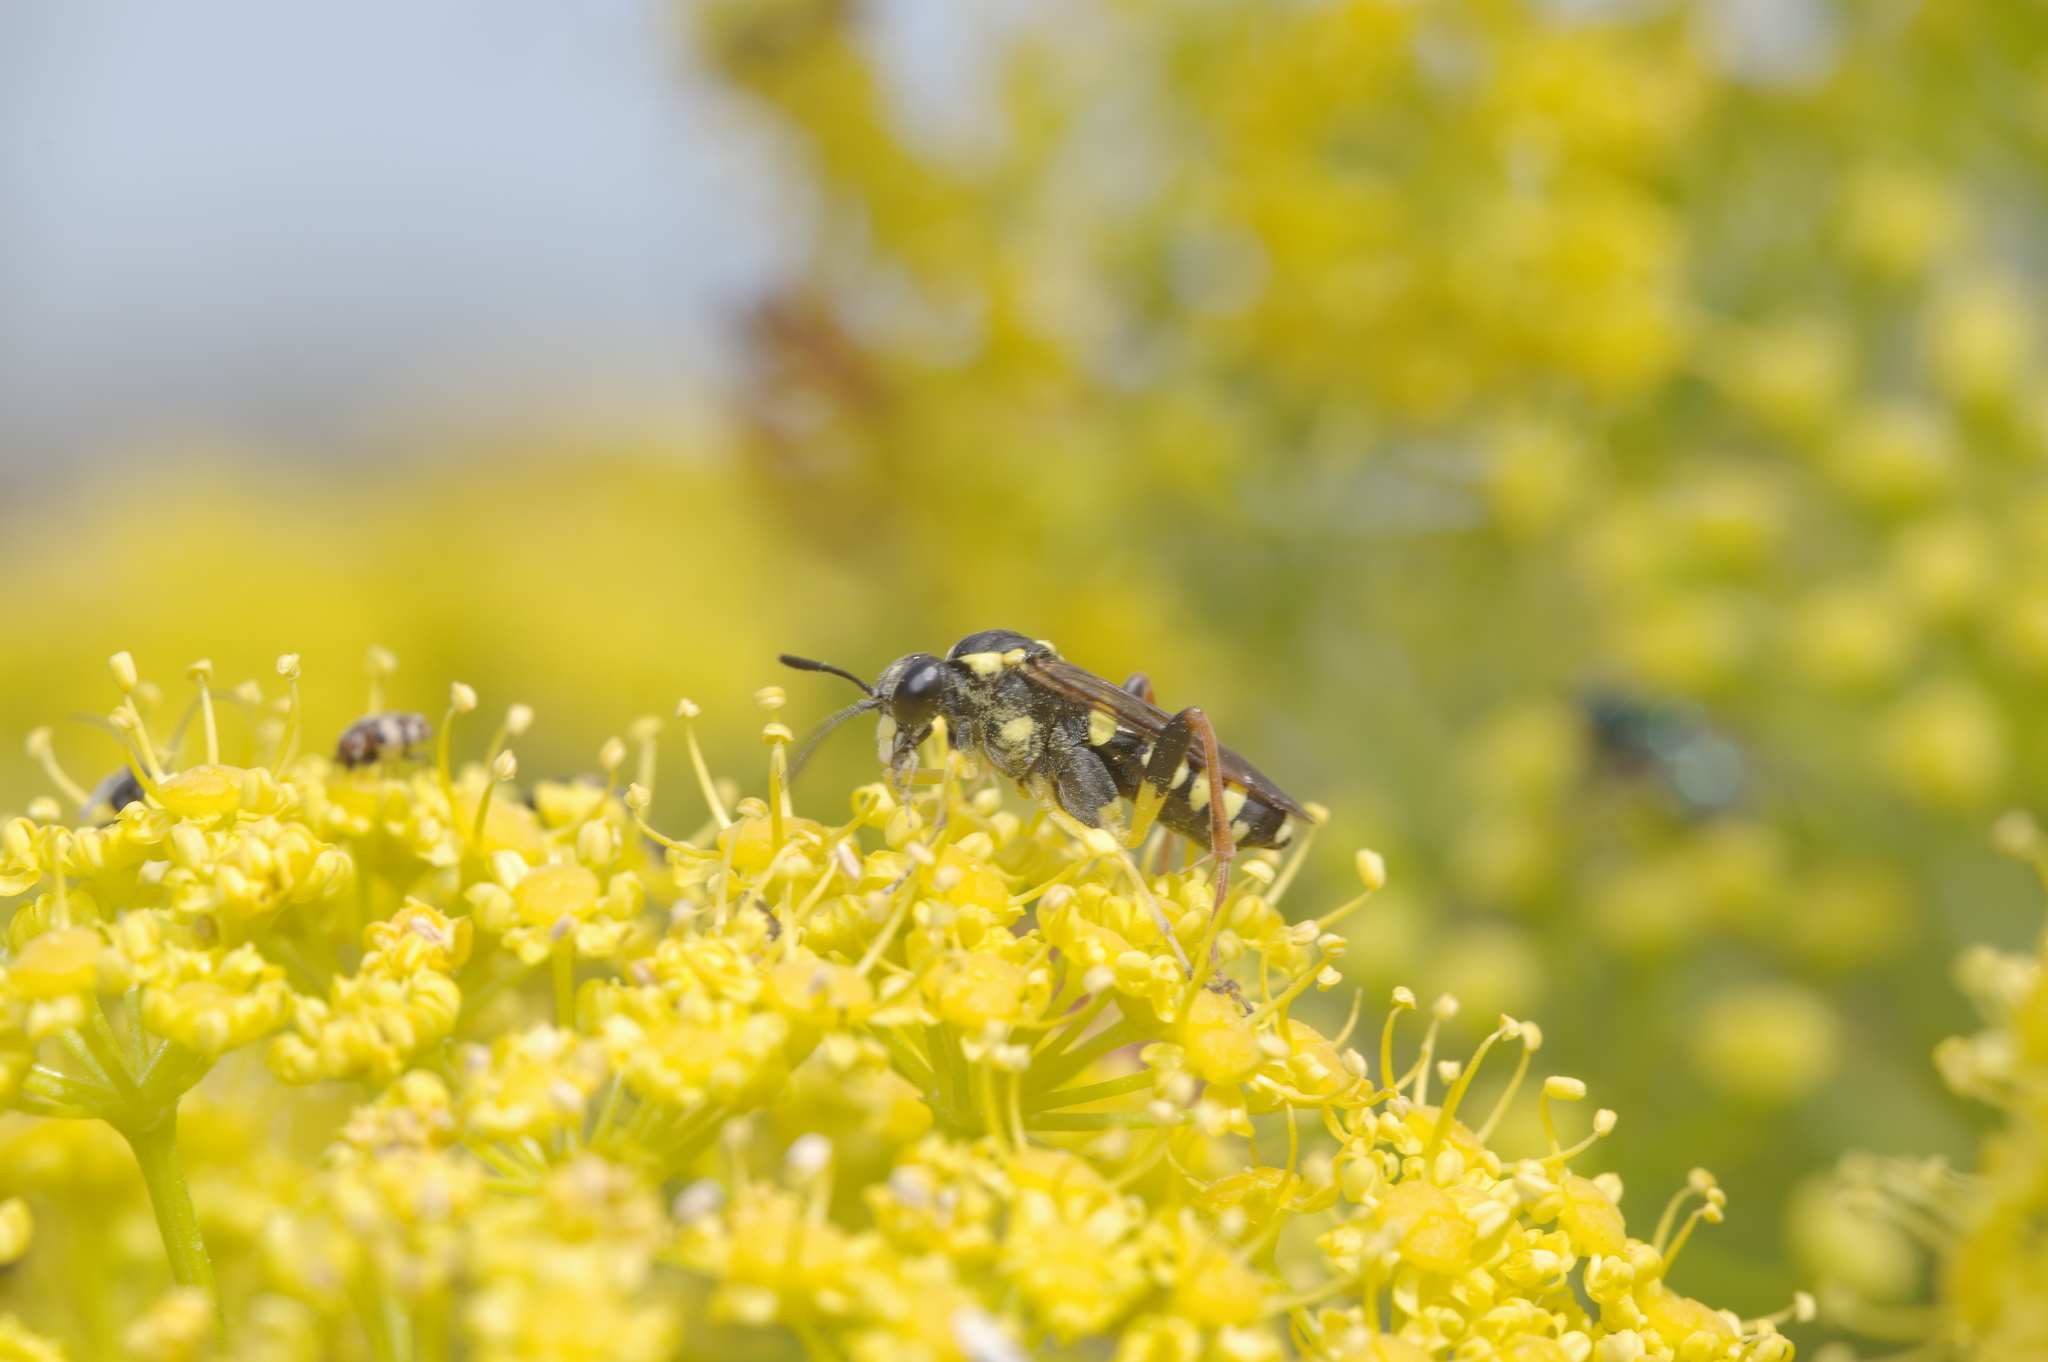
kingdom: Animalia
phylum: Arthropoda
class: Insecta
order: Hymenoptera
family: Tenthredinidae
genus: Macrophya
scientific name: Macrophya postica
